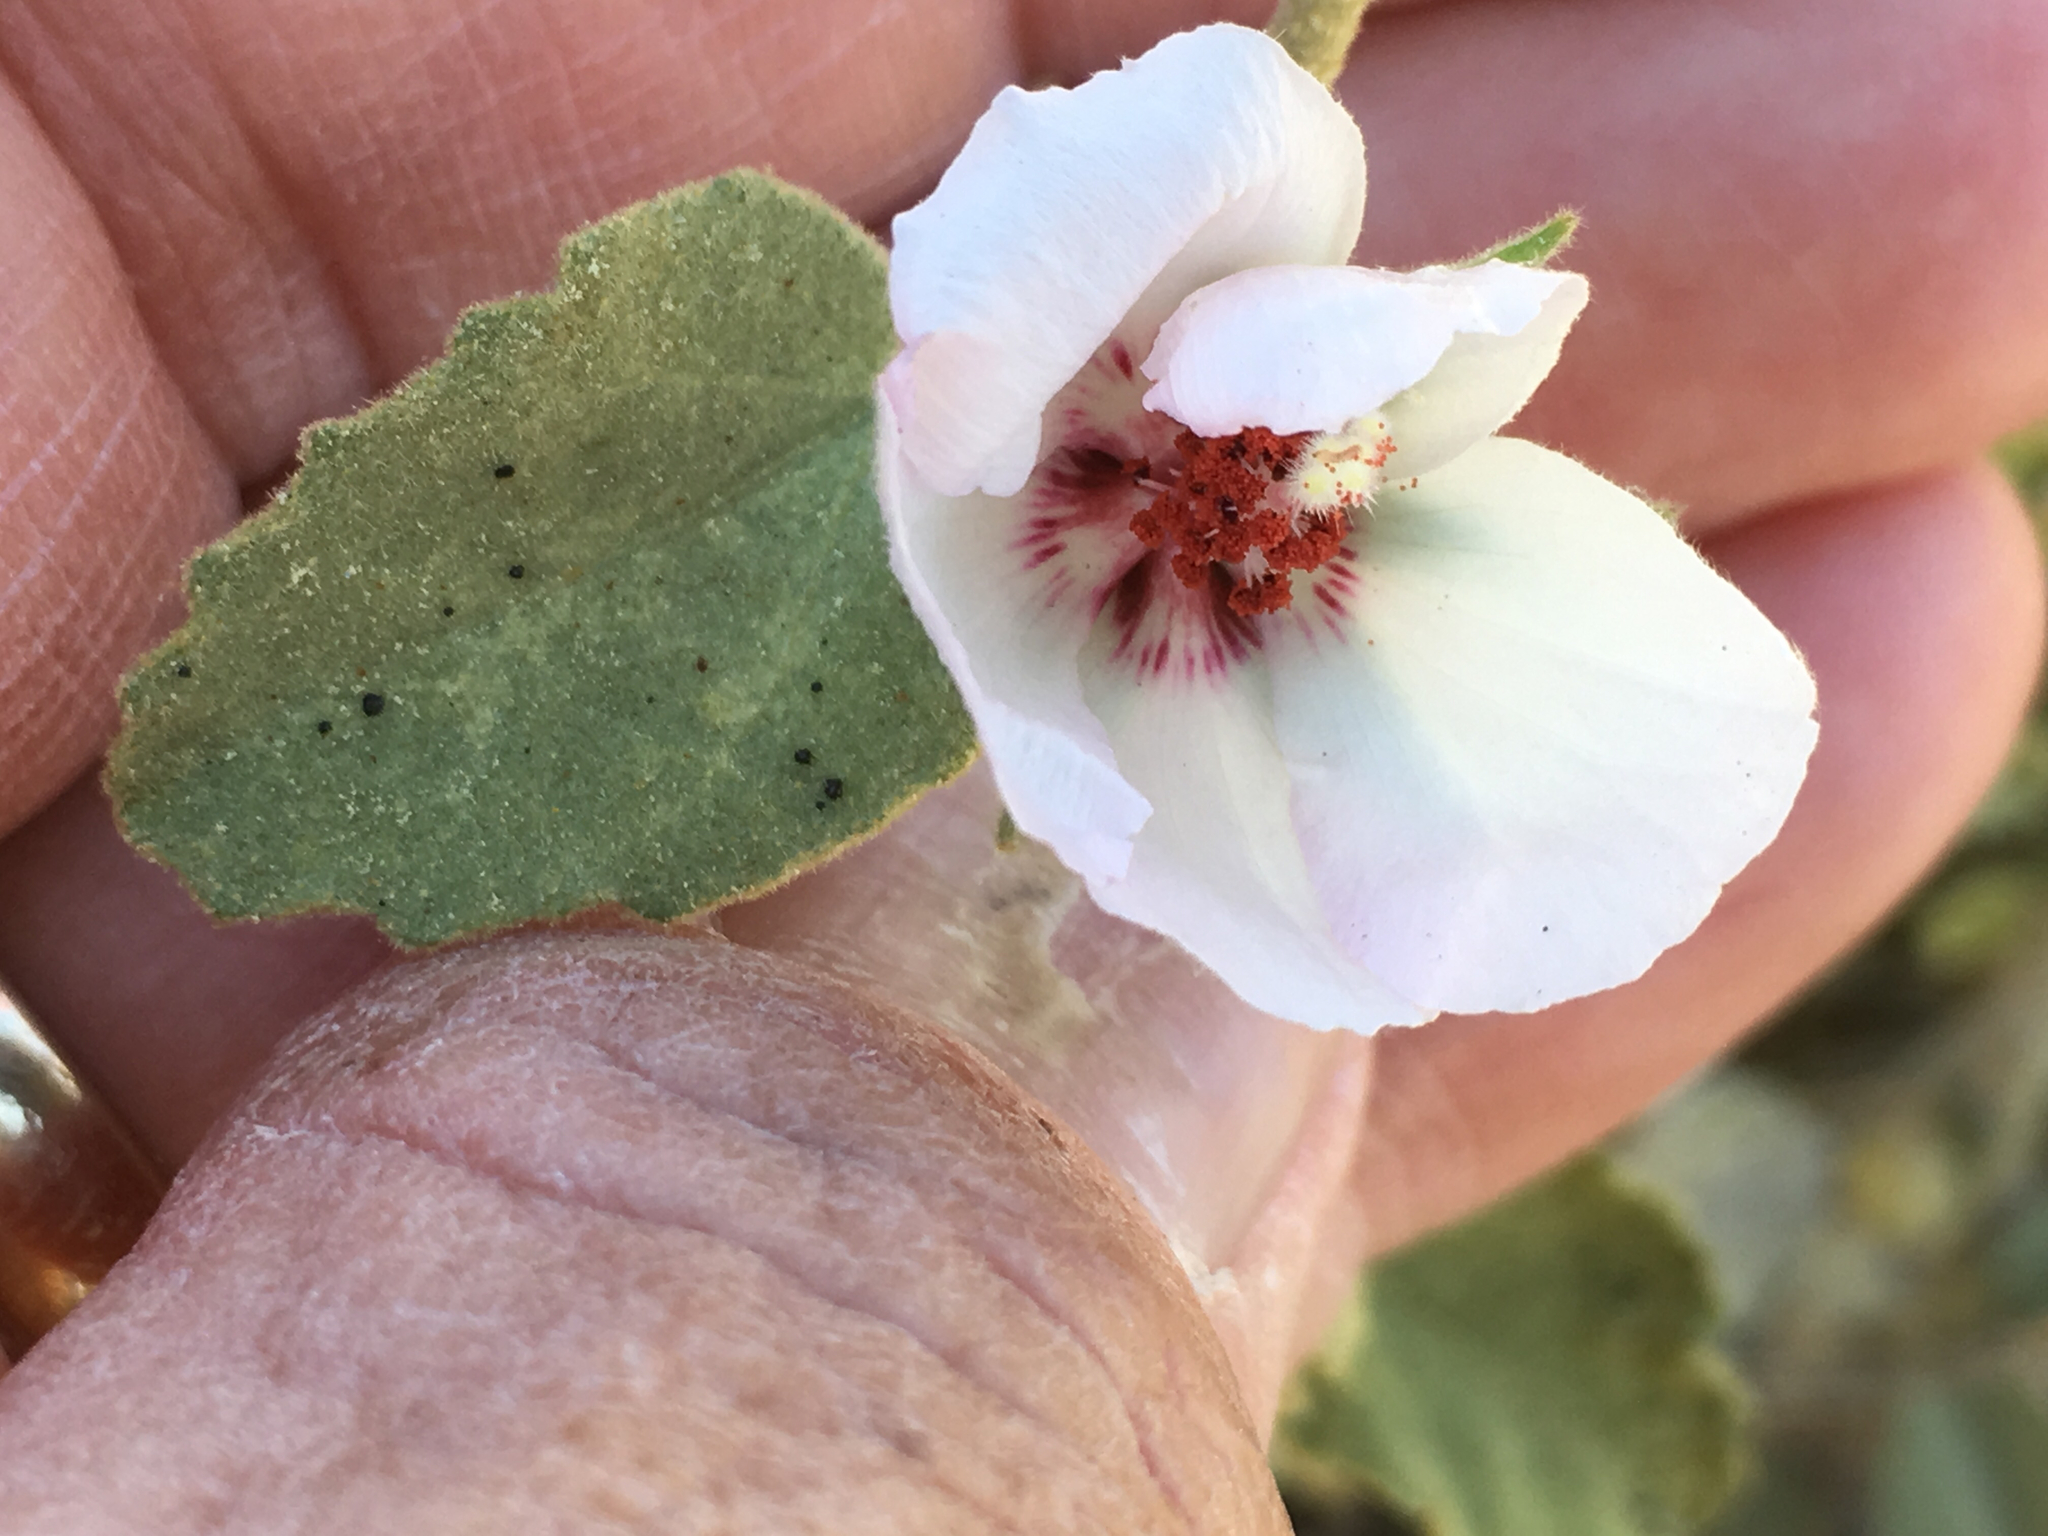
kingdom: Plantae
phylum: Tracheophyta
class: Magnoliopsida
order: Malvales
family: Malvaceae
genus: Hibiscus
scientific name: Hibiscus denudatus
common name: Paleface
